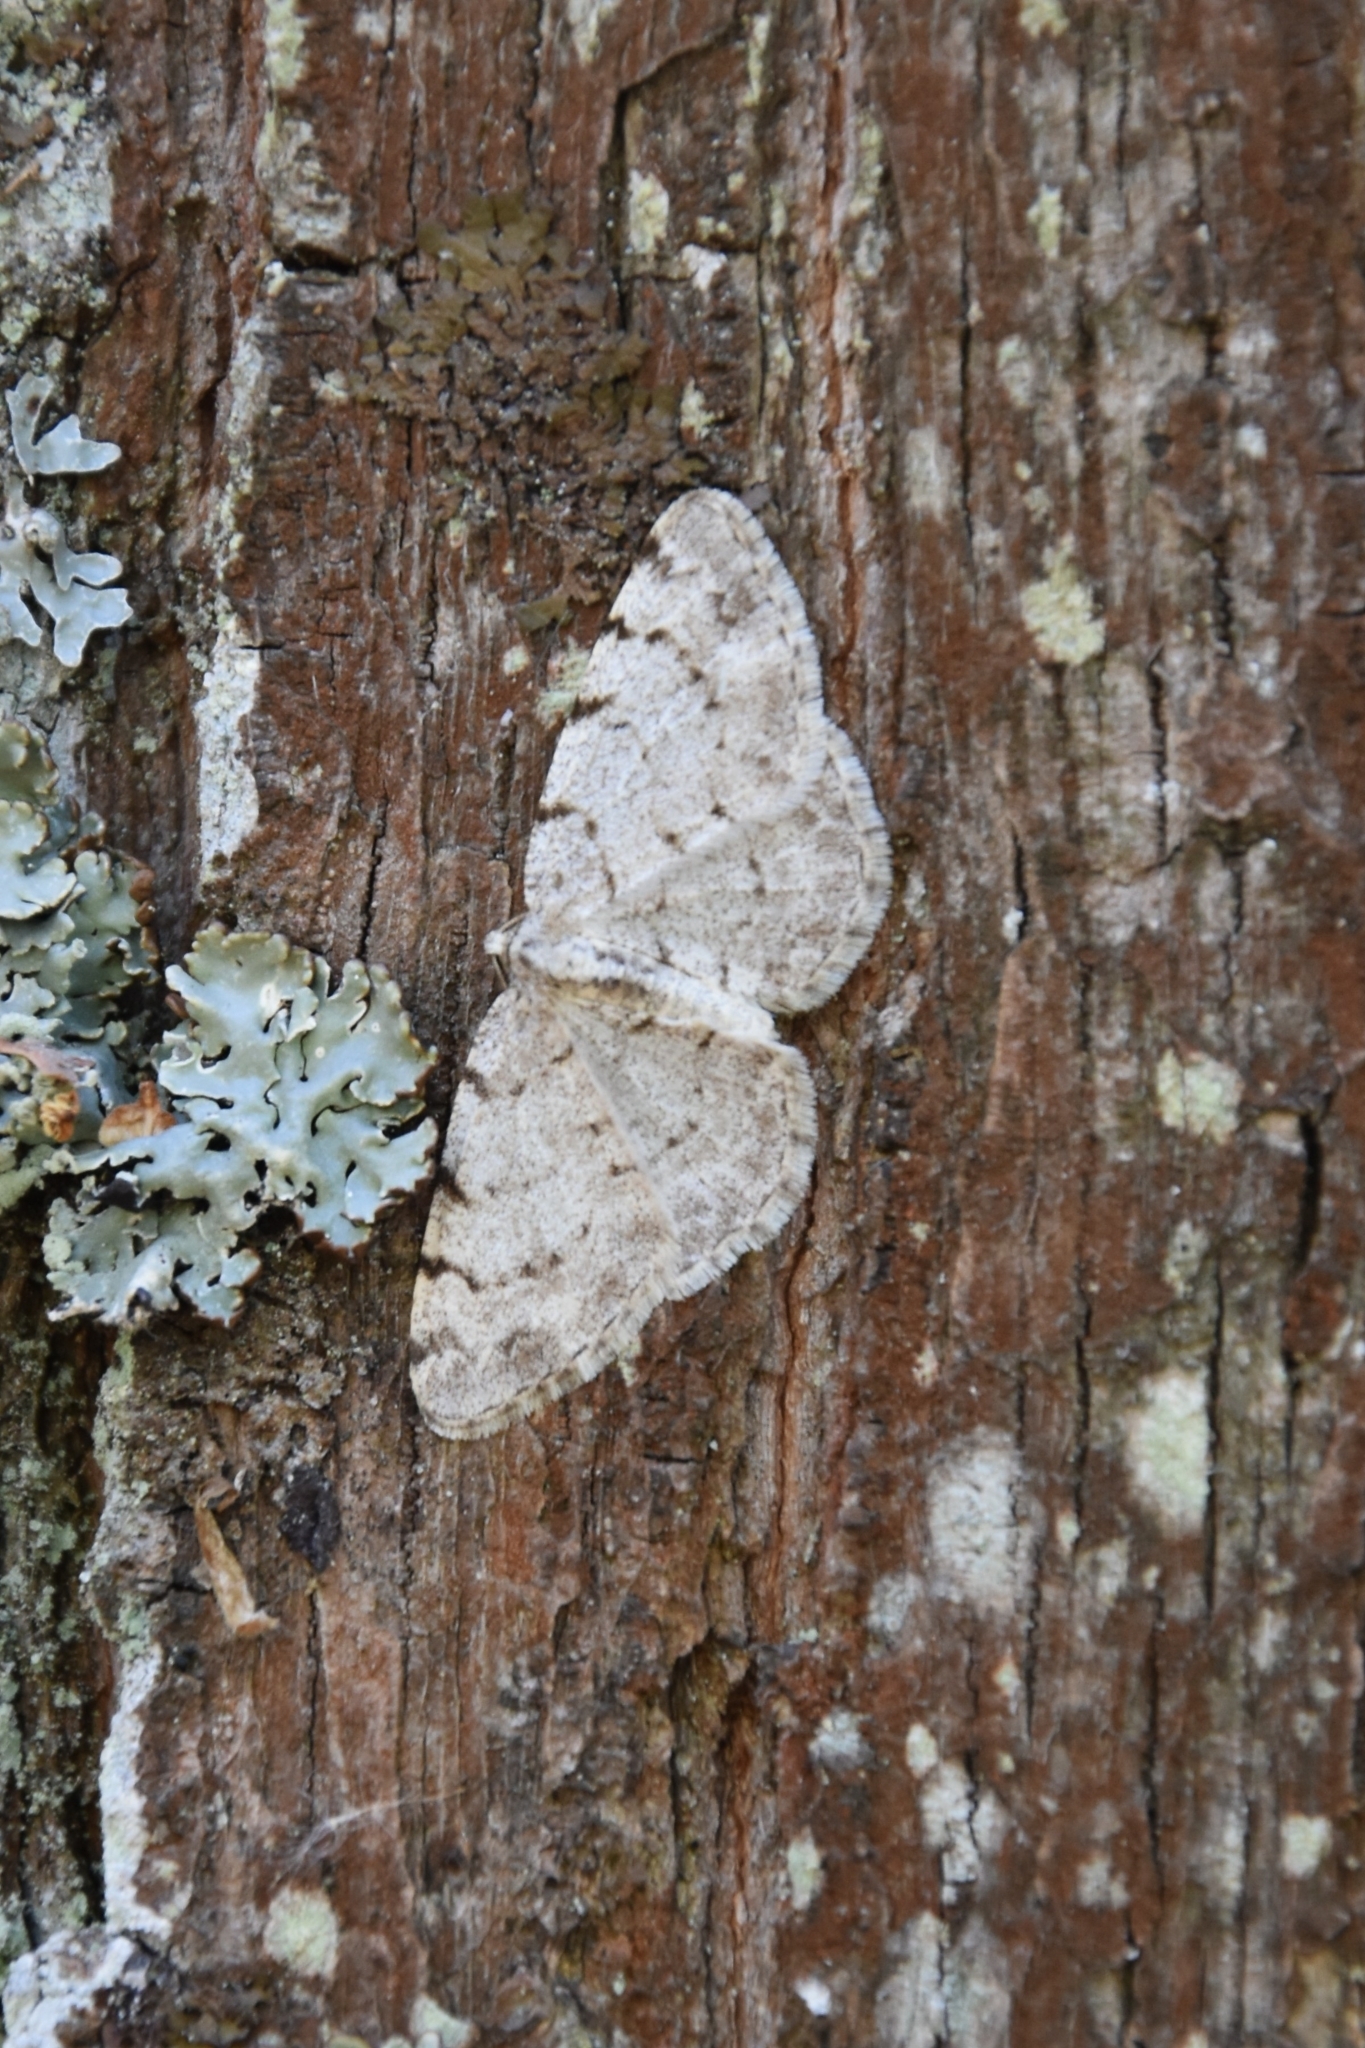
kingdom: Animalia
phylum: Arthropoda
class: Insecta
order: Lepidoptera
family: Geometridae
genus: Aethalura
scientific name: Aethalura punctulata
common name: Grey birch
